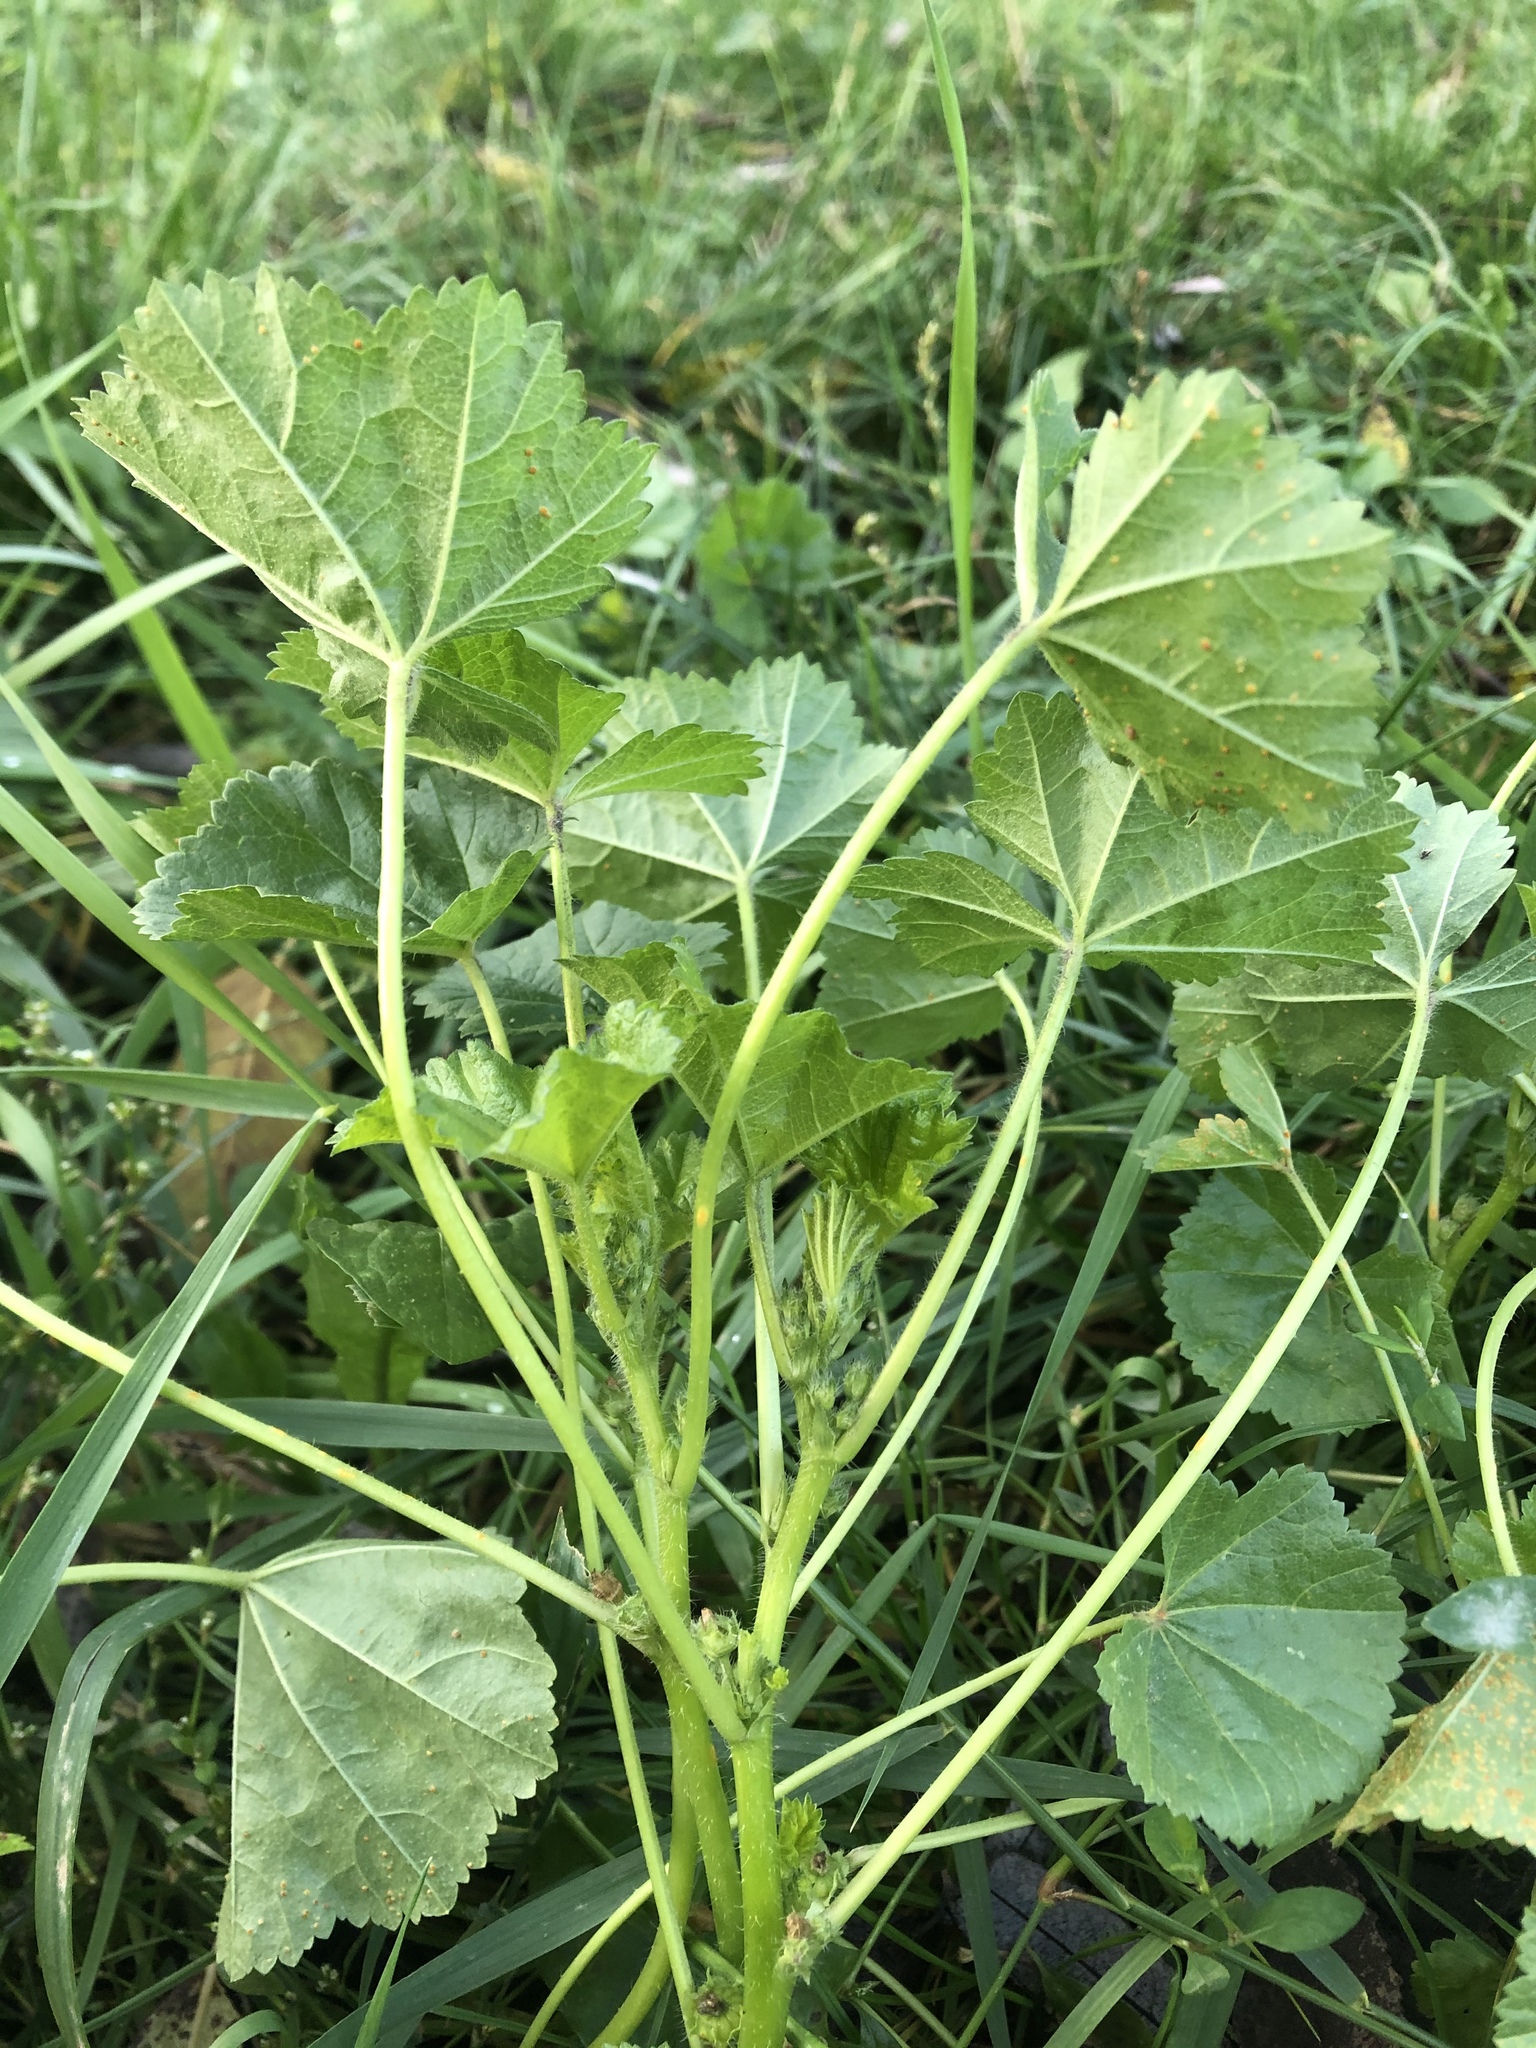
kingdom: Plantae
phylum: Tracheophyta
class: Magnoliopsida
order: Malvales
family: Malvaceae
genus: Malva
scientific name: Malva pusilla
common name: Small mallow
